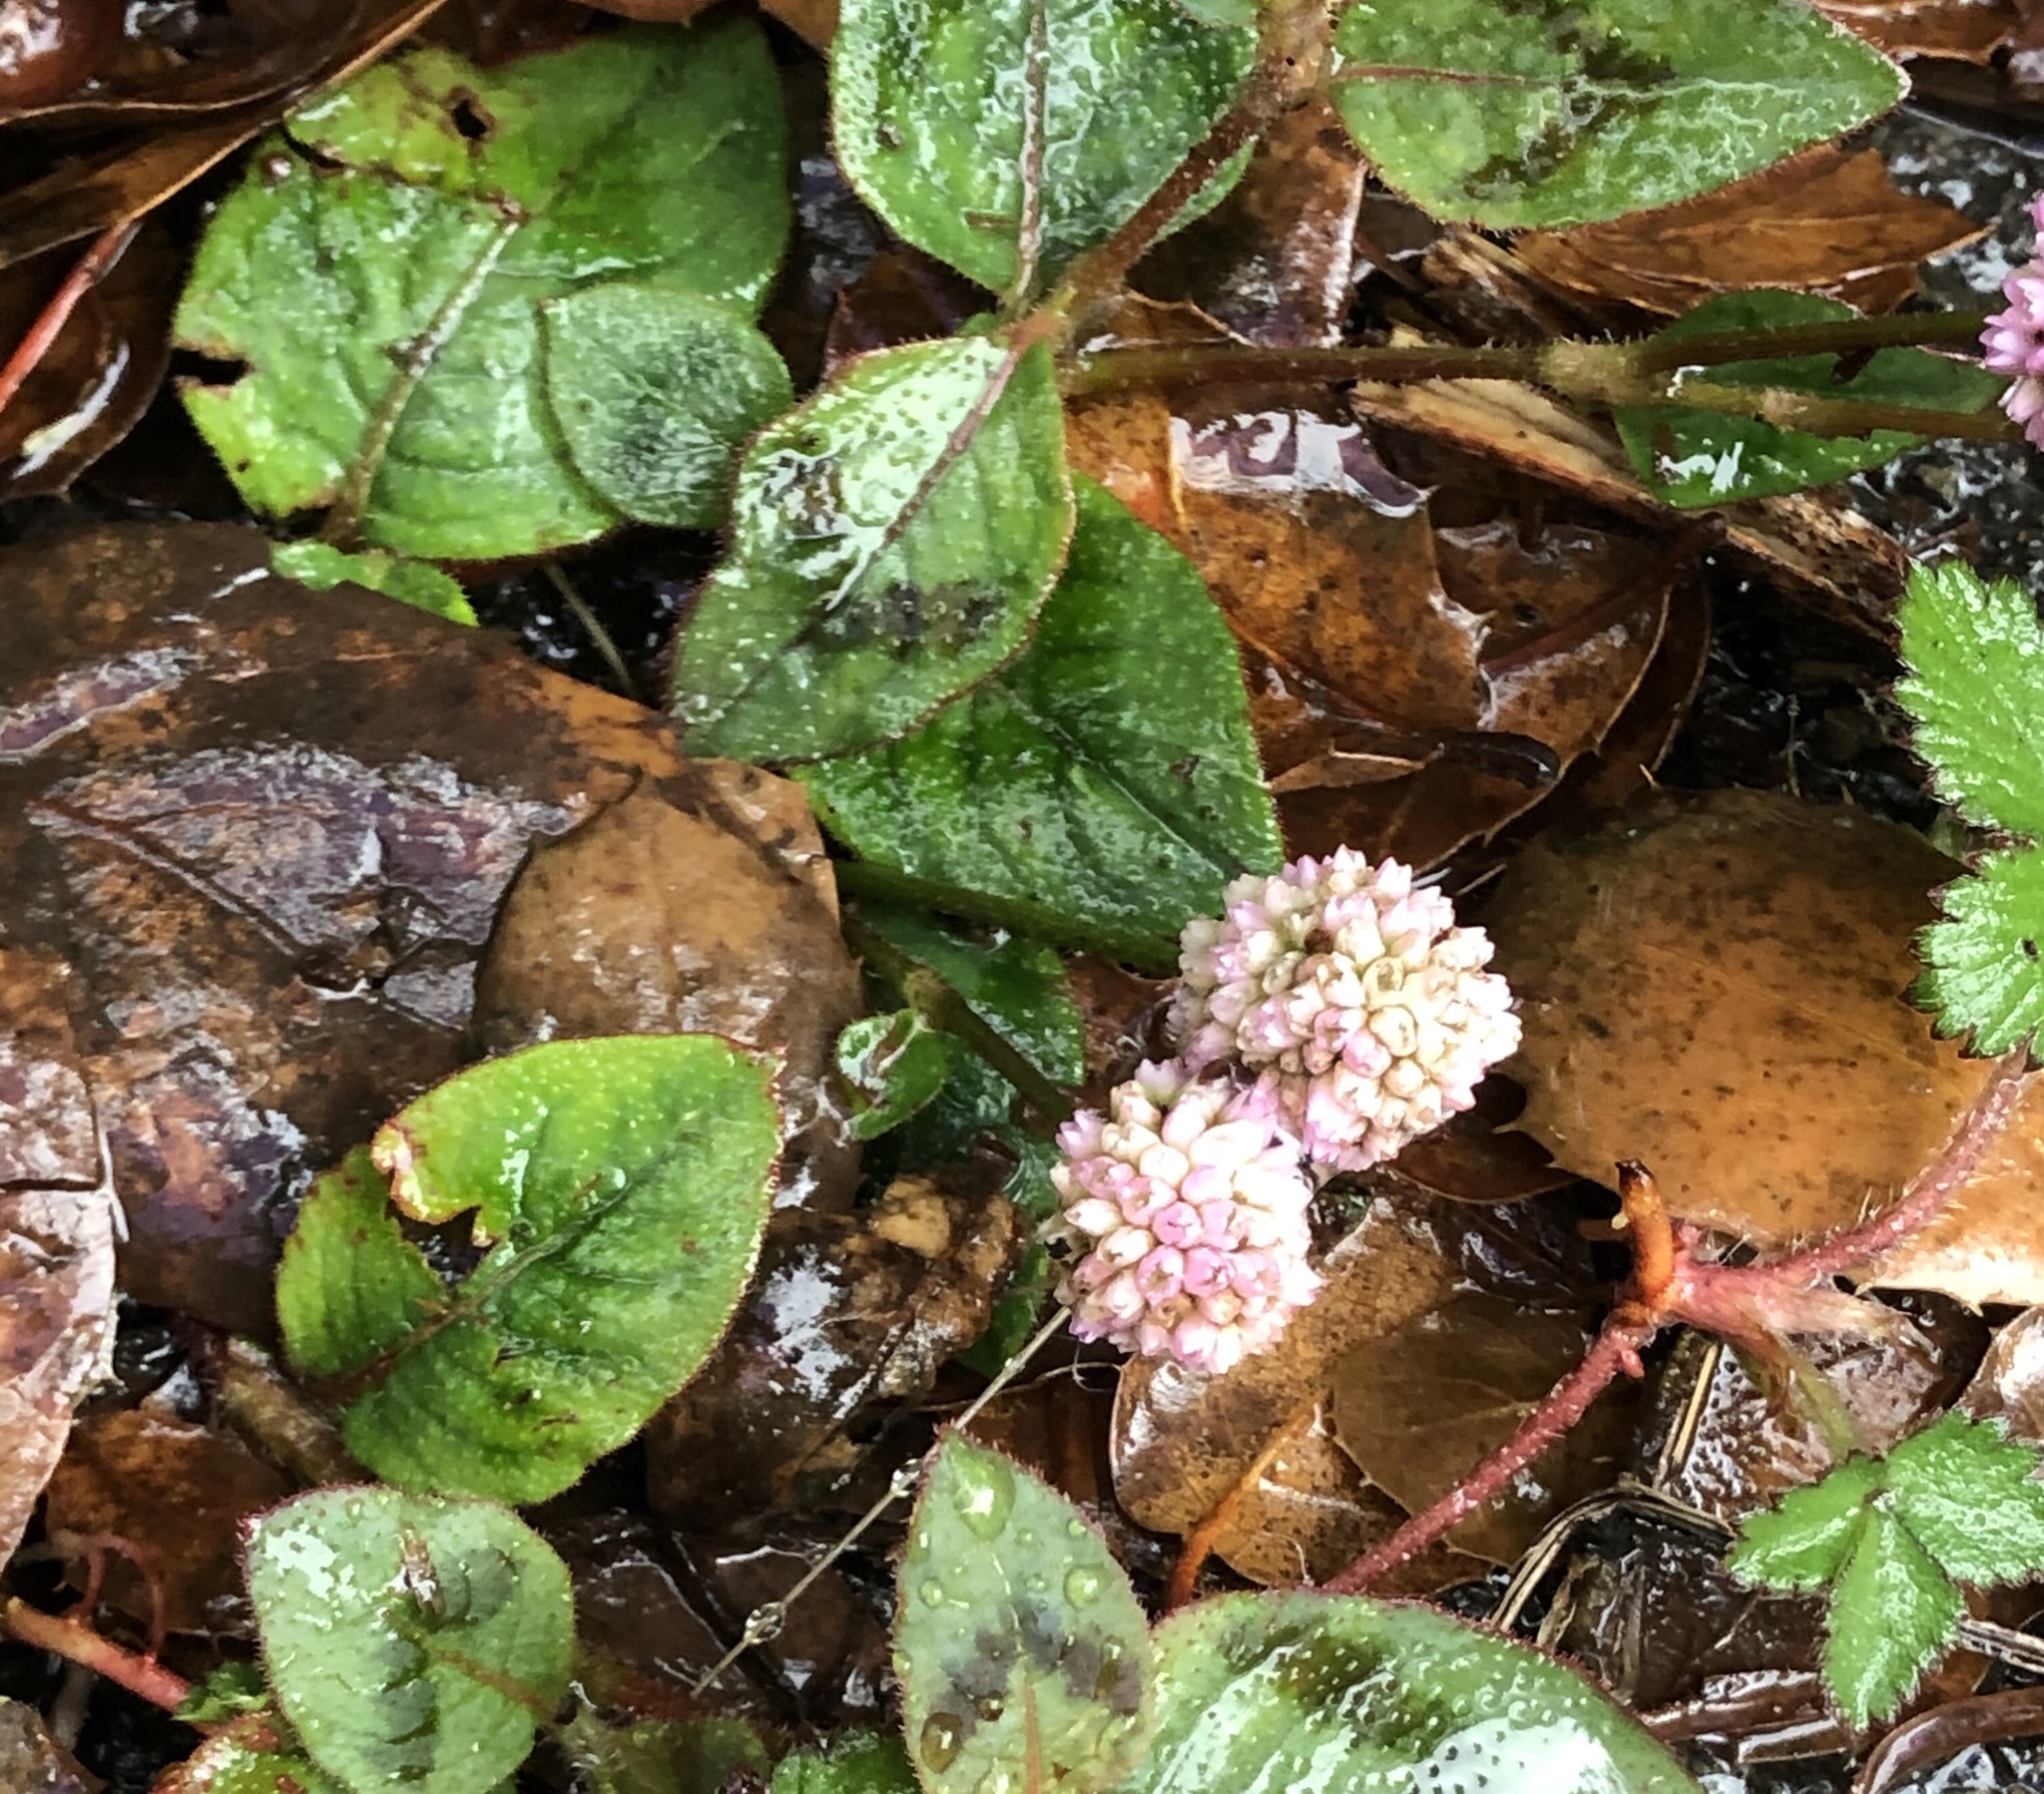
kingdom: Plantae
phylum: Tracheophyta
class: Magnoliopsida
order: Caryophyllales
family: Polygonaceae
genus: Persicaria
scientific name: Persicaria capitata
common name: Pinkhead smartweed
